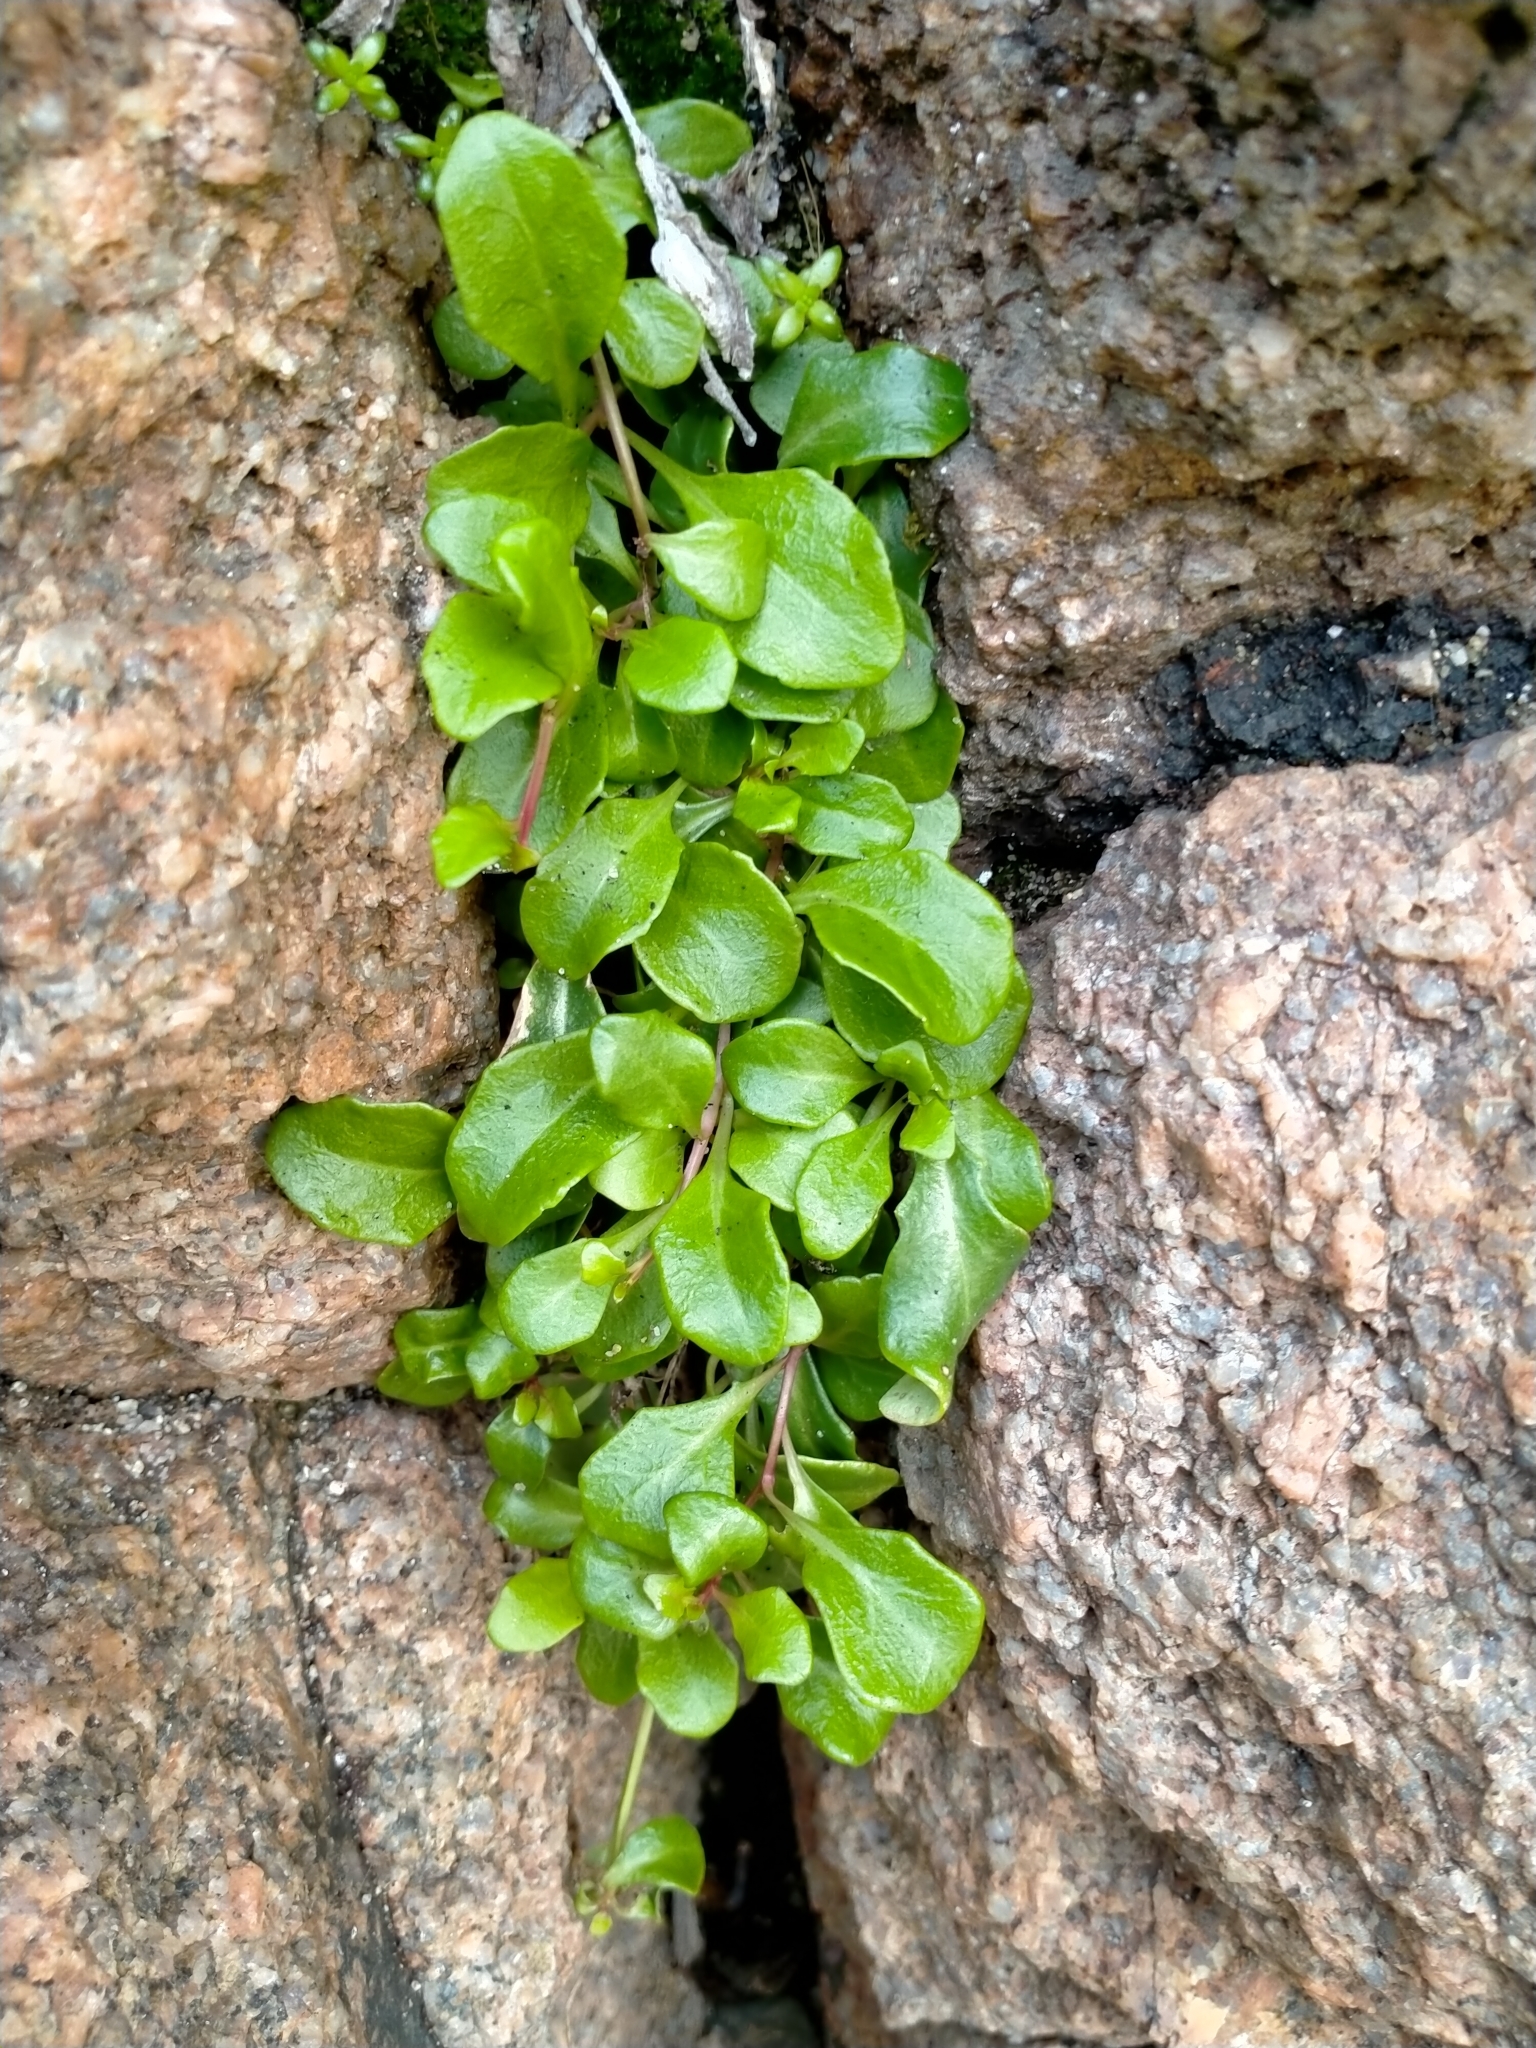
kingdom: Plantae
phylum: Tracheophyta
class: Magnoliopsida
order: Asterales
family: Campanulaceae
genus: Lobelia
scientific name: Lobelia anceps
